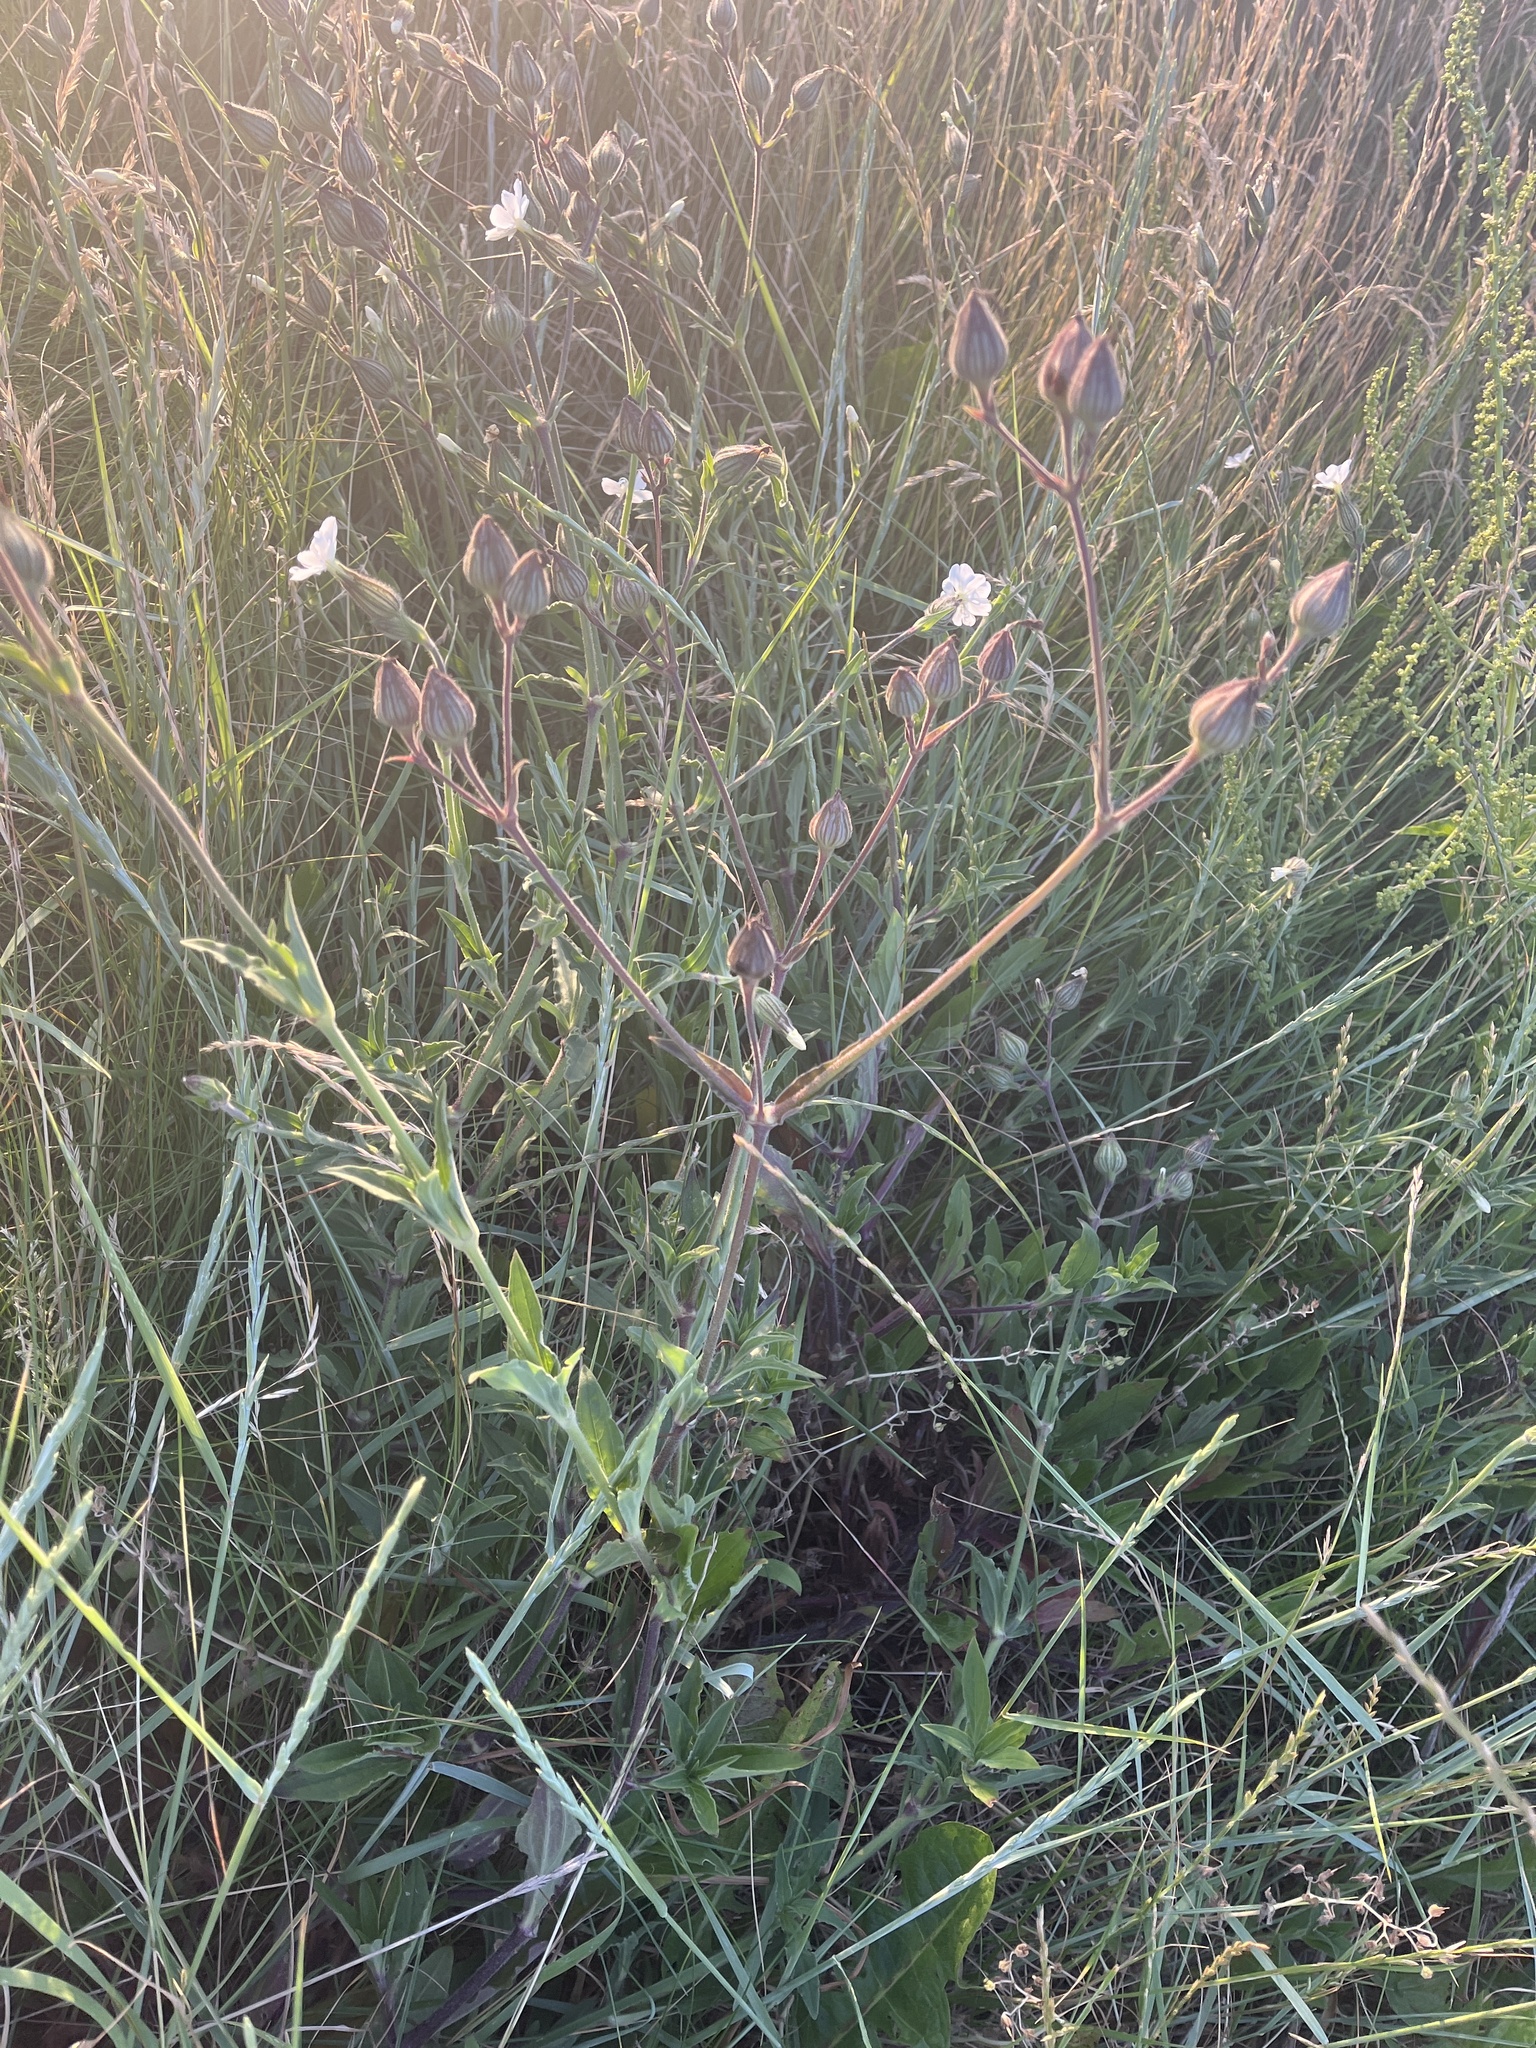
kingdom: Plantae
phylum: Tracheophyta
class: Magnoliopsida
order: Caryophyllales
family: Caryophyllaceae
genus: Silene
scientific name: Silene latifolia
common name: White campion
